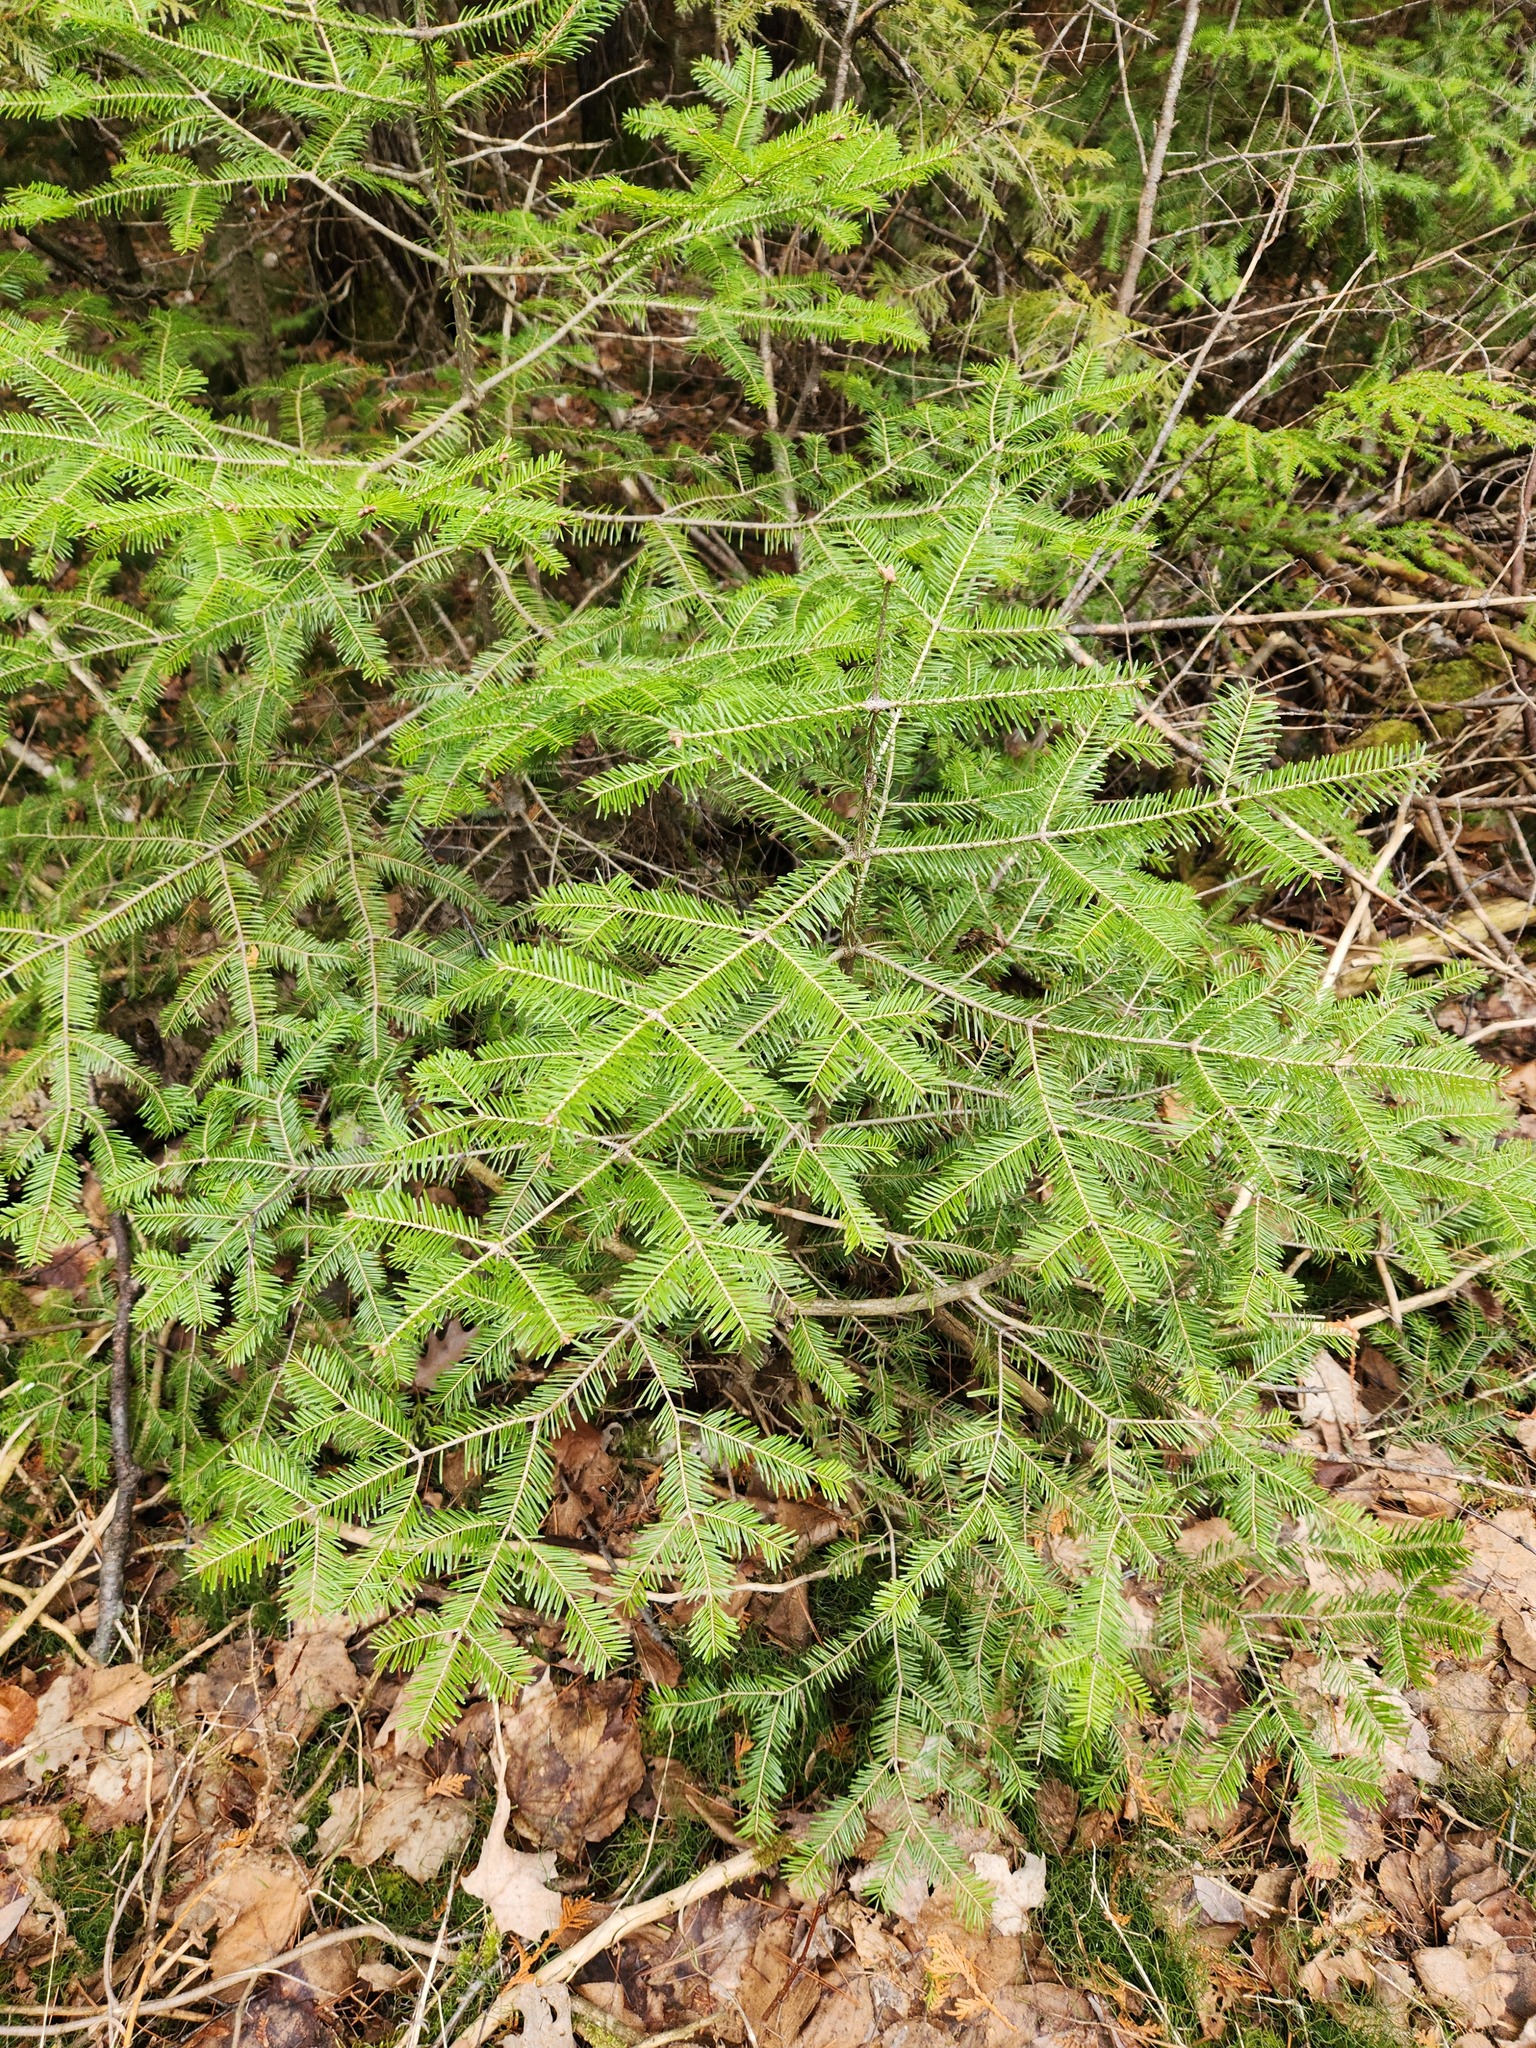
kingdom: Plantae
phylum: Tracheophyta
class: Pinopsida
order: Pinales
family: Pinaceae
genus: Abies
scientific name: Abies balsamea
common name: Balsam fir
